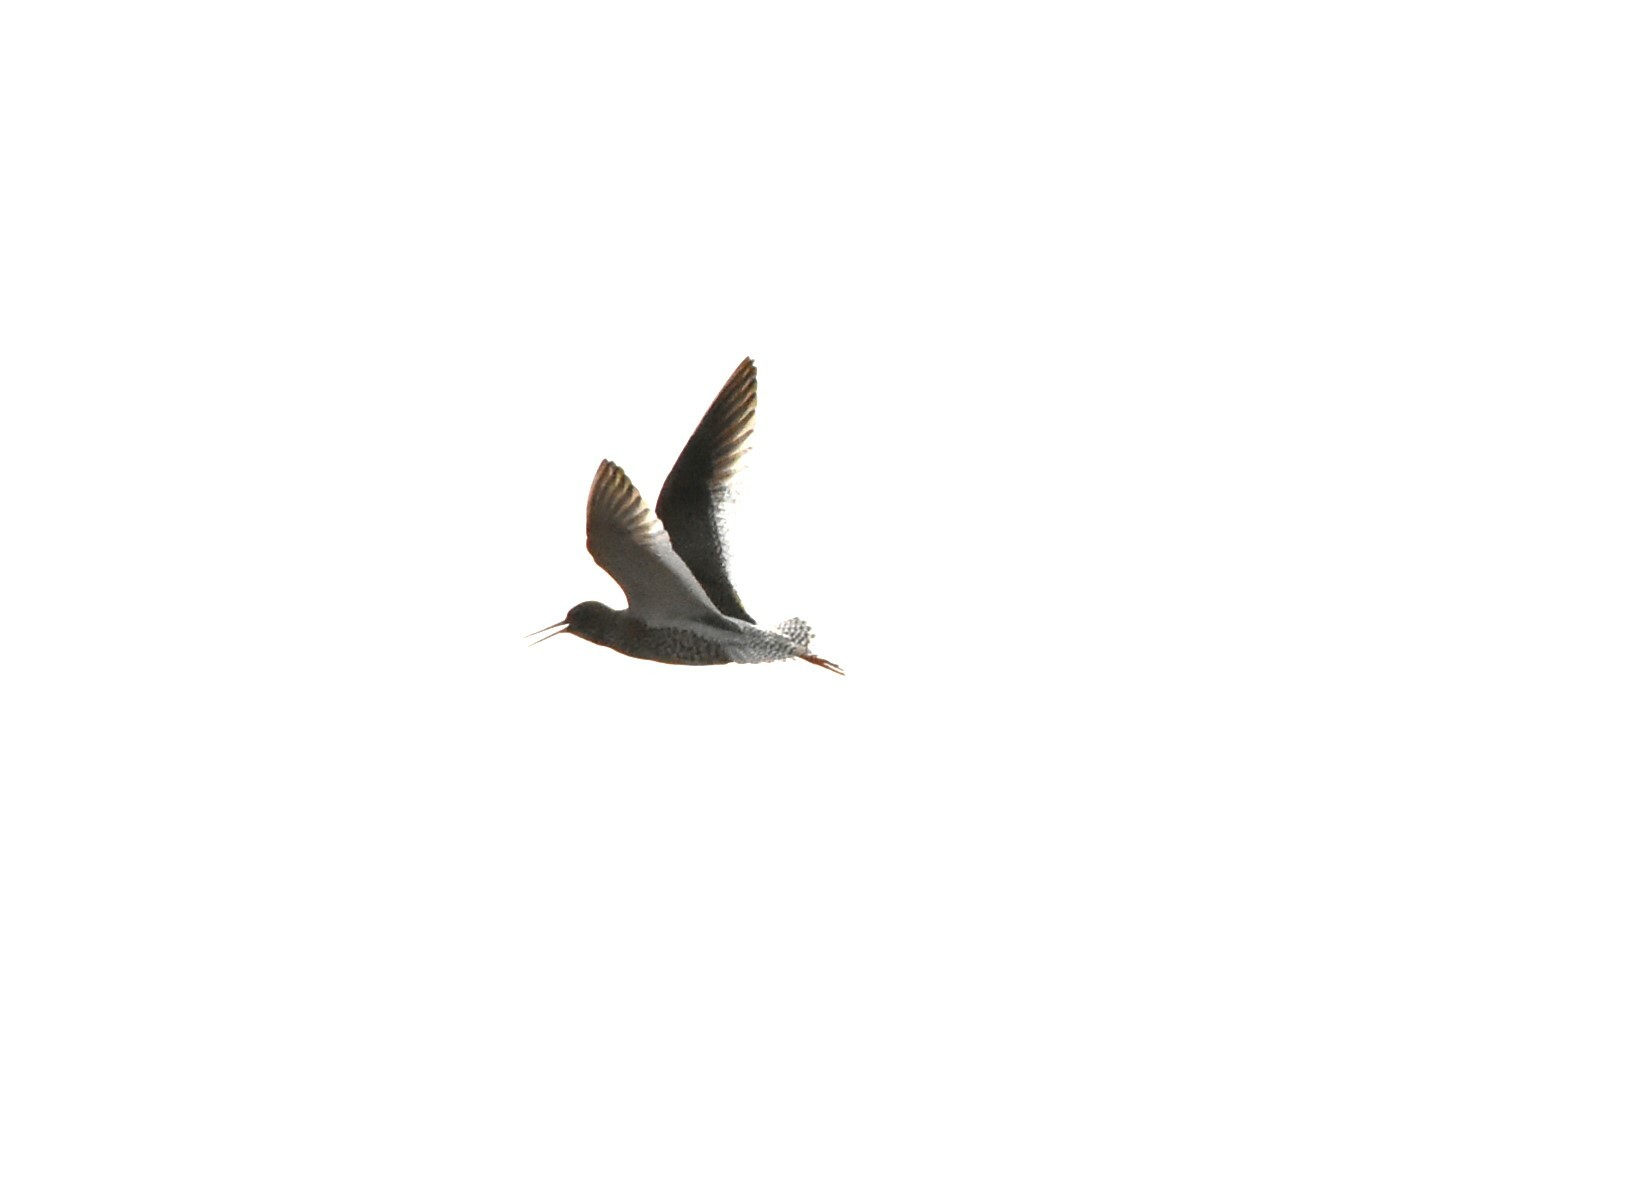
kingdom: Animalia
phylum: Chordata
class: Aves
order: Charadriiformes
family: Scolopacidae
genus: Tringa
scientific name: Tringa totanus
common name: Common redshank
